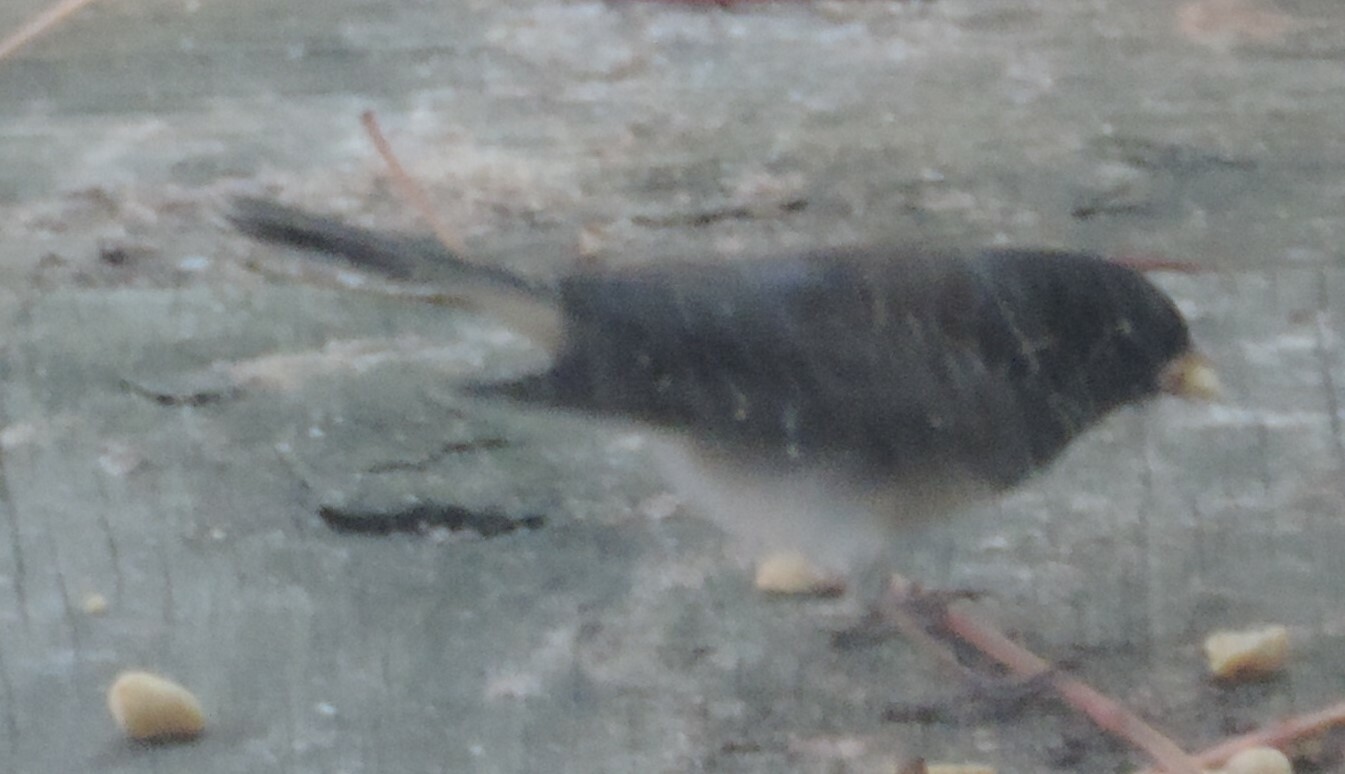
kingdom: Animalia
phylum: Chordata
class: Aves
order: Passeriformes
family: Passerellidae
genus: Junco
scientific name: Junco hyemalis
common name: Dark-eyed junco
